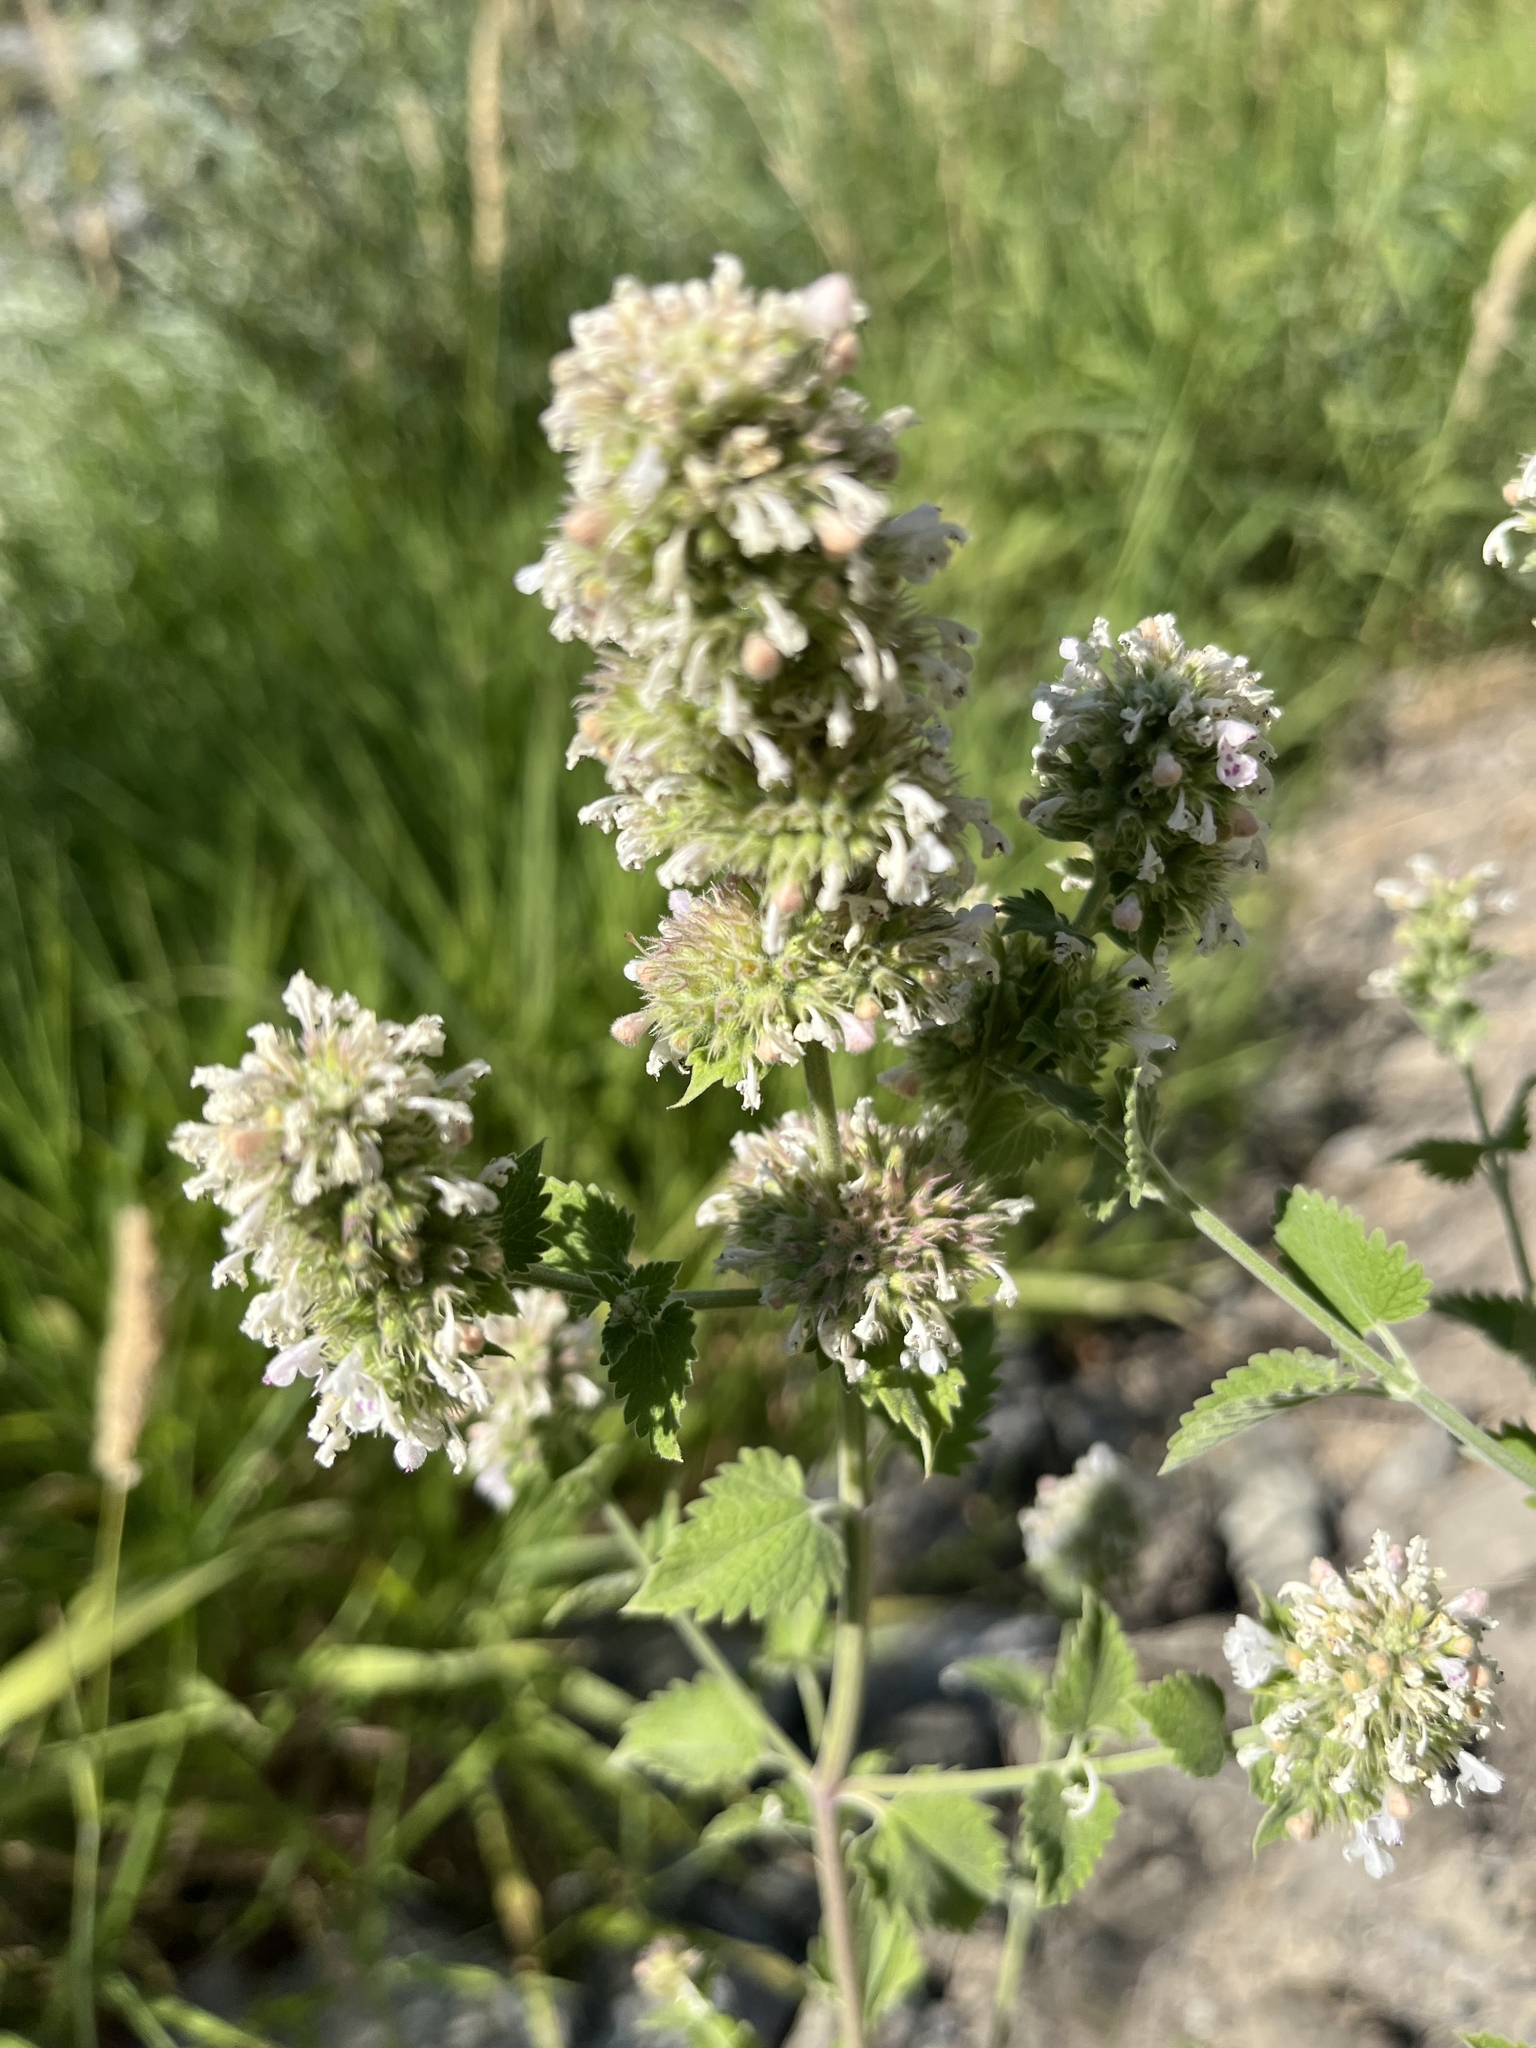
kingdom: Plantae
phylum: Tracheophyta
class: Magnoliopsida
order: Lamiales
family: Lamiaceae
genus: Nepeta
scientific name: Nepeta cataria
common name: Catnip
